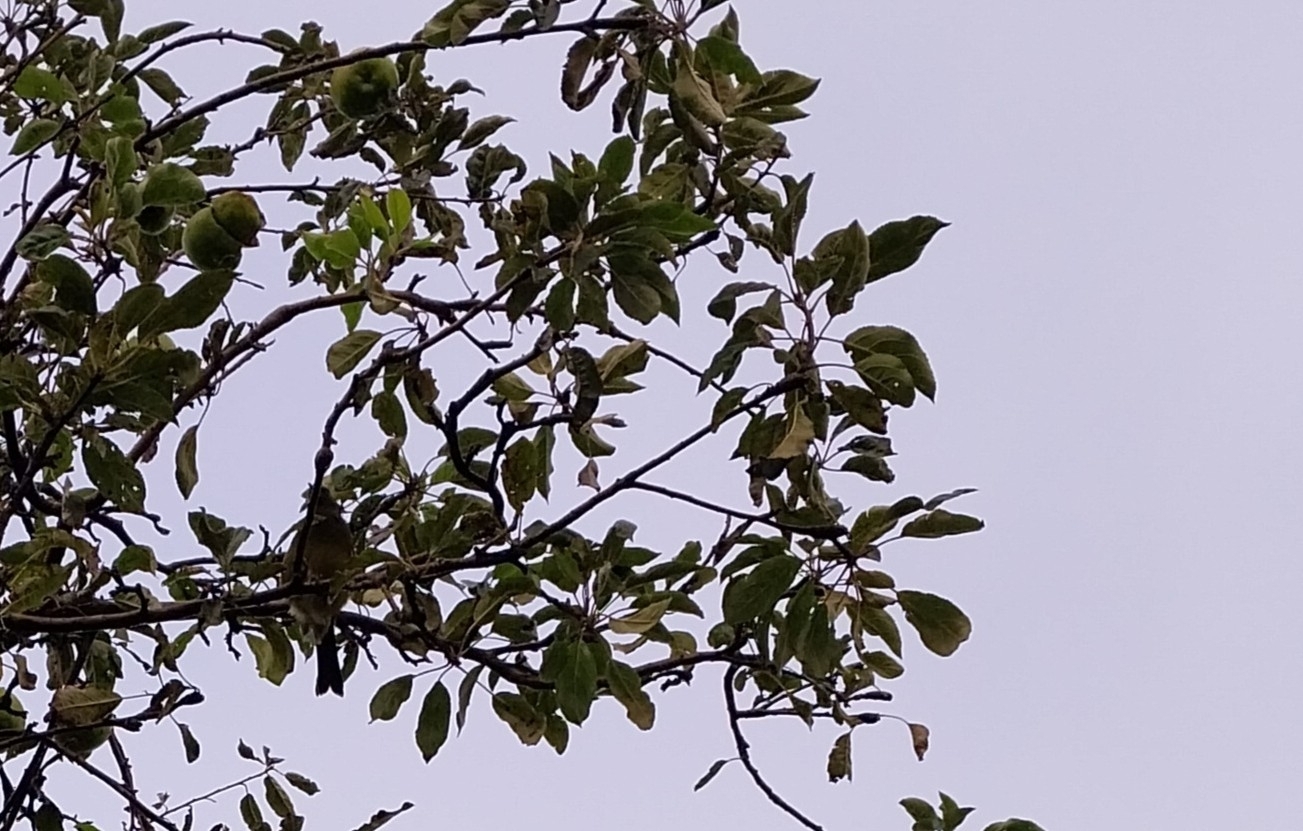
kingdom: Animalia
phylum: Chordata
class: Aves
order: Passeriformes
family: Meliphagidae
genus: Anthornis
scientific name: Anthornis melanura
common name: New zealand bellbird
